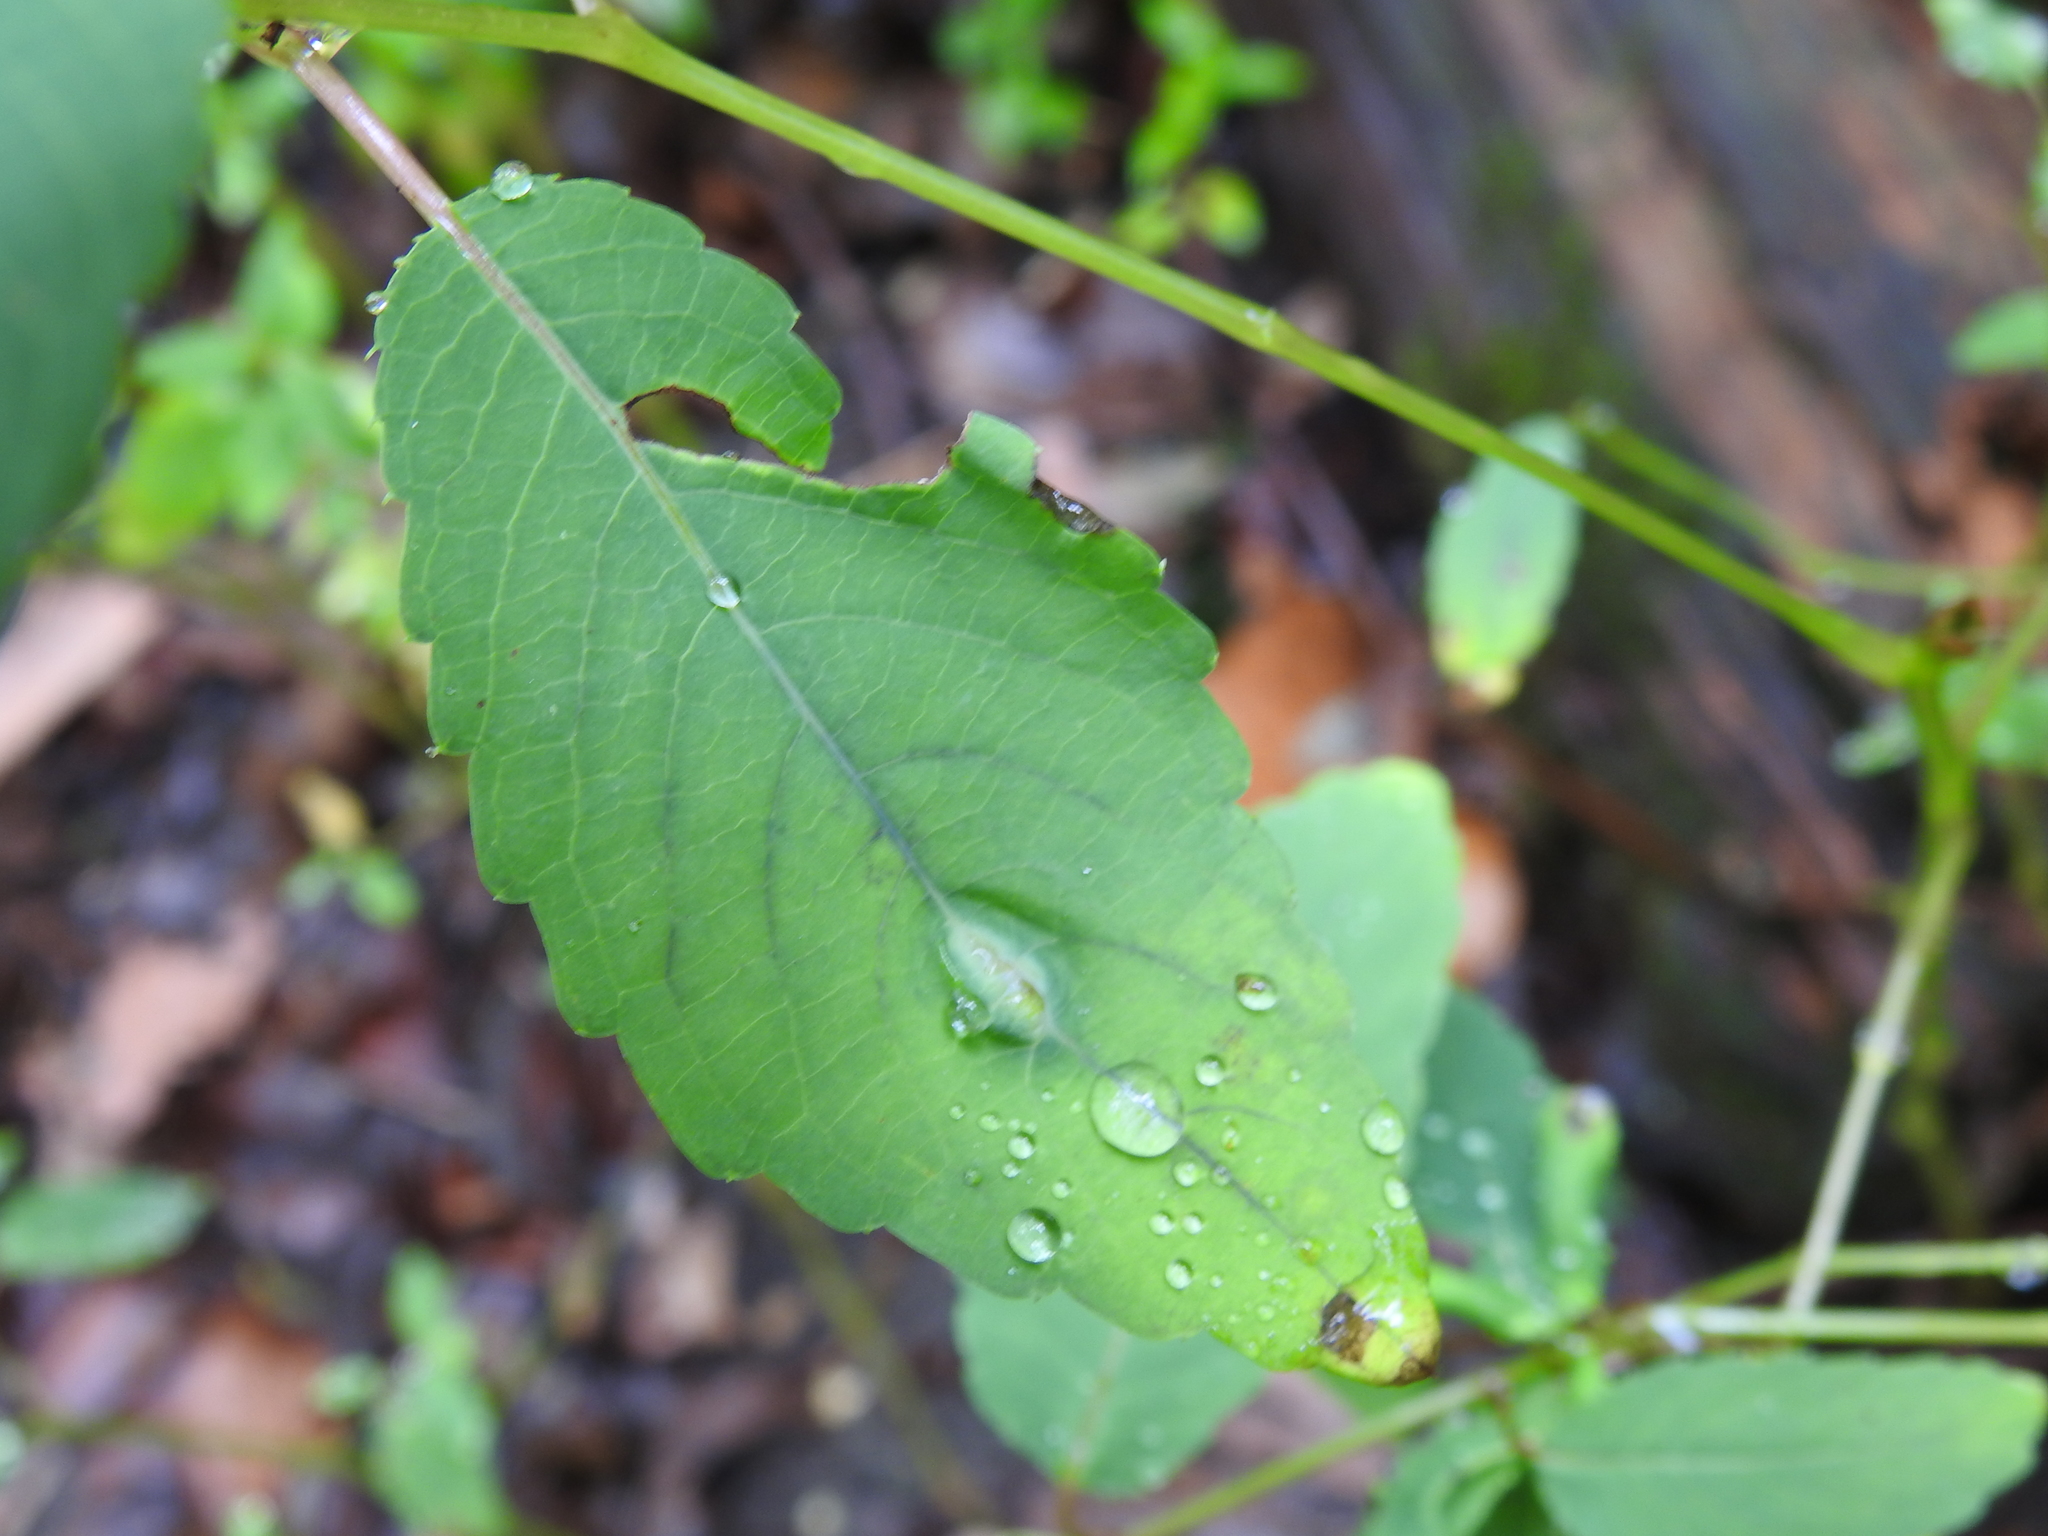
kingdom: Animalia
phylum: Arthropoda
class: Insecta
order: Diptera
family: Cecidomyiidae
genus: Neolasioptera
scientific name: Neolasioptera impatientifolia
